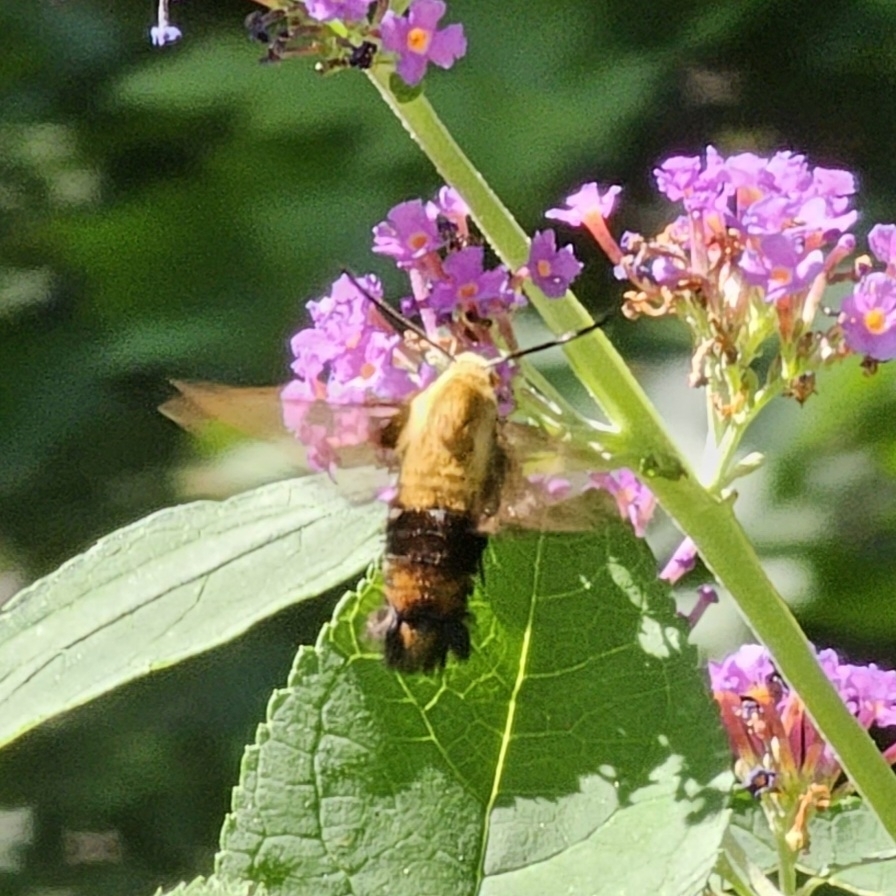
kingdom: Animalia
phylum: Arthropoda
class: Insecta
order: Lepidoptera
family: Sphingidae
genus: Hemaris
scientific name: Hemaris diffinis
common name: Bumblebee moth
